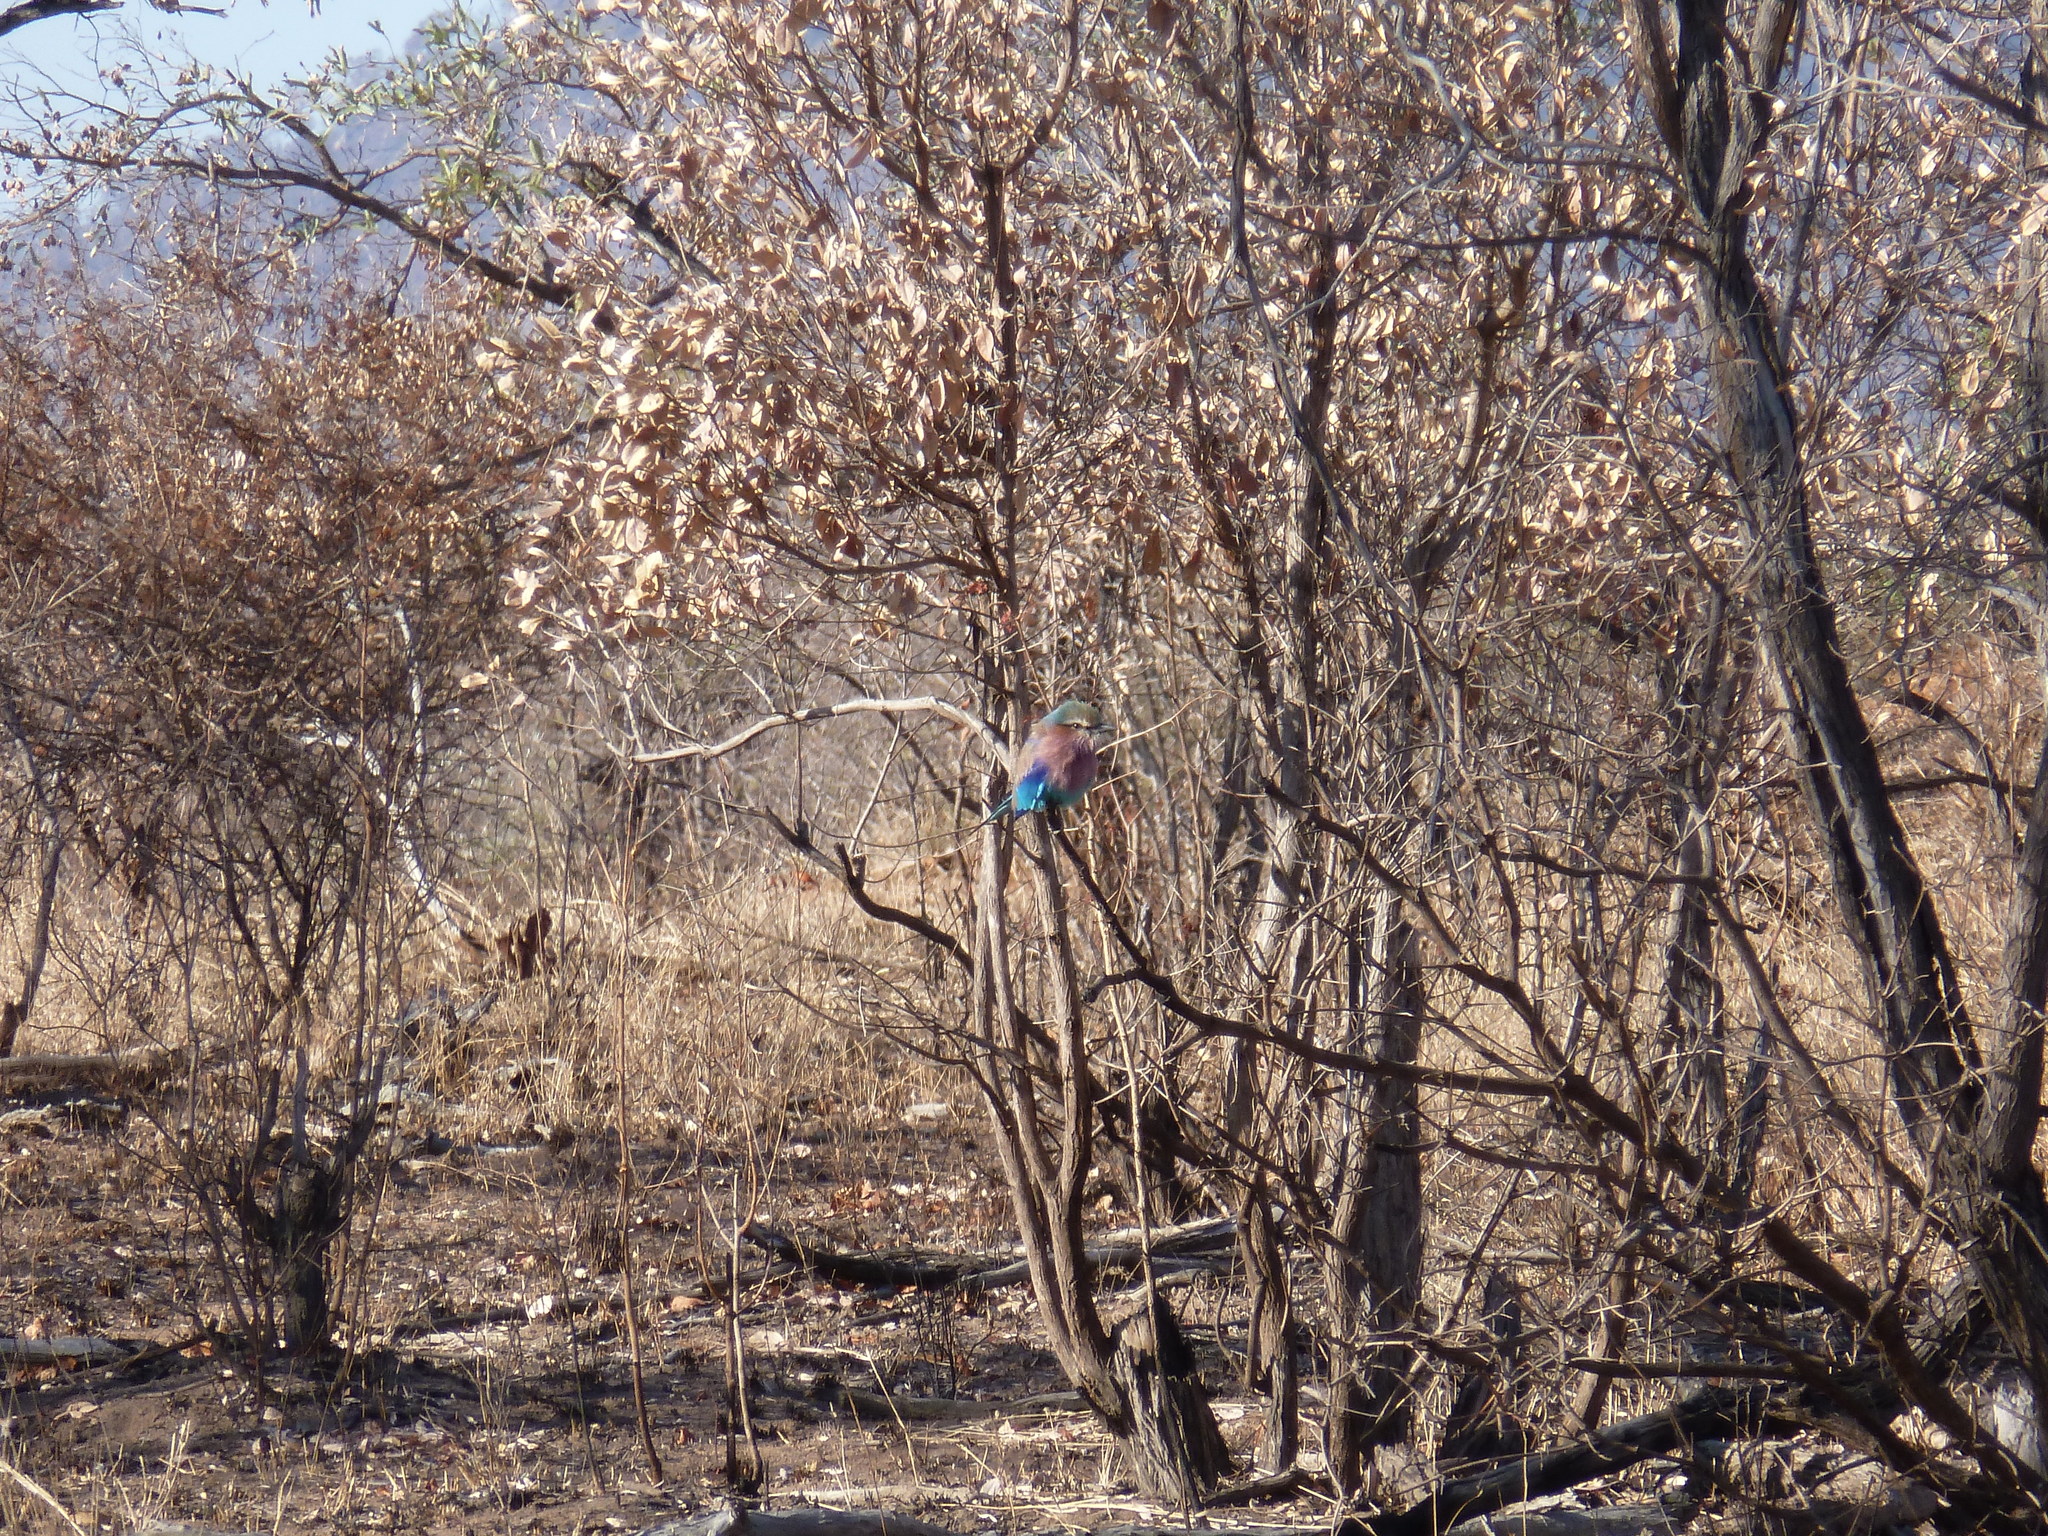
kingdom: Animalia
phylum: Chordata
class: Aves
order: Coraciiformes
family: Coraciidae
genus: Coracias
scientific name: Coracias caudatus
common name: Lilac-breasted roller
